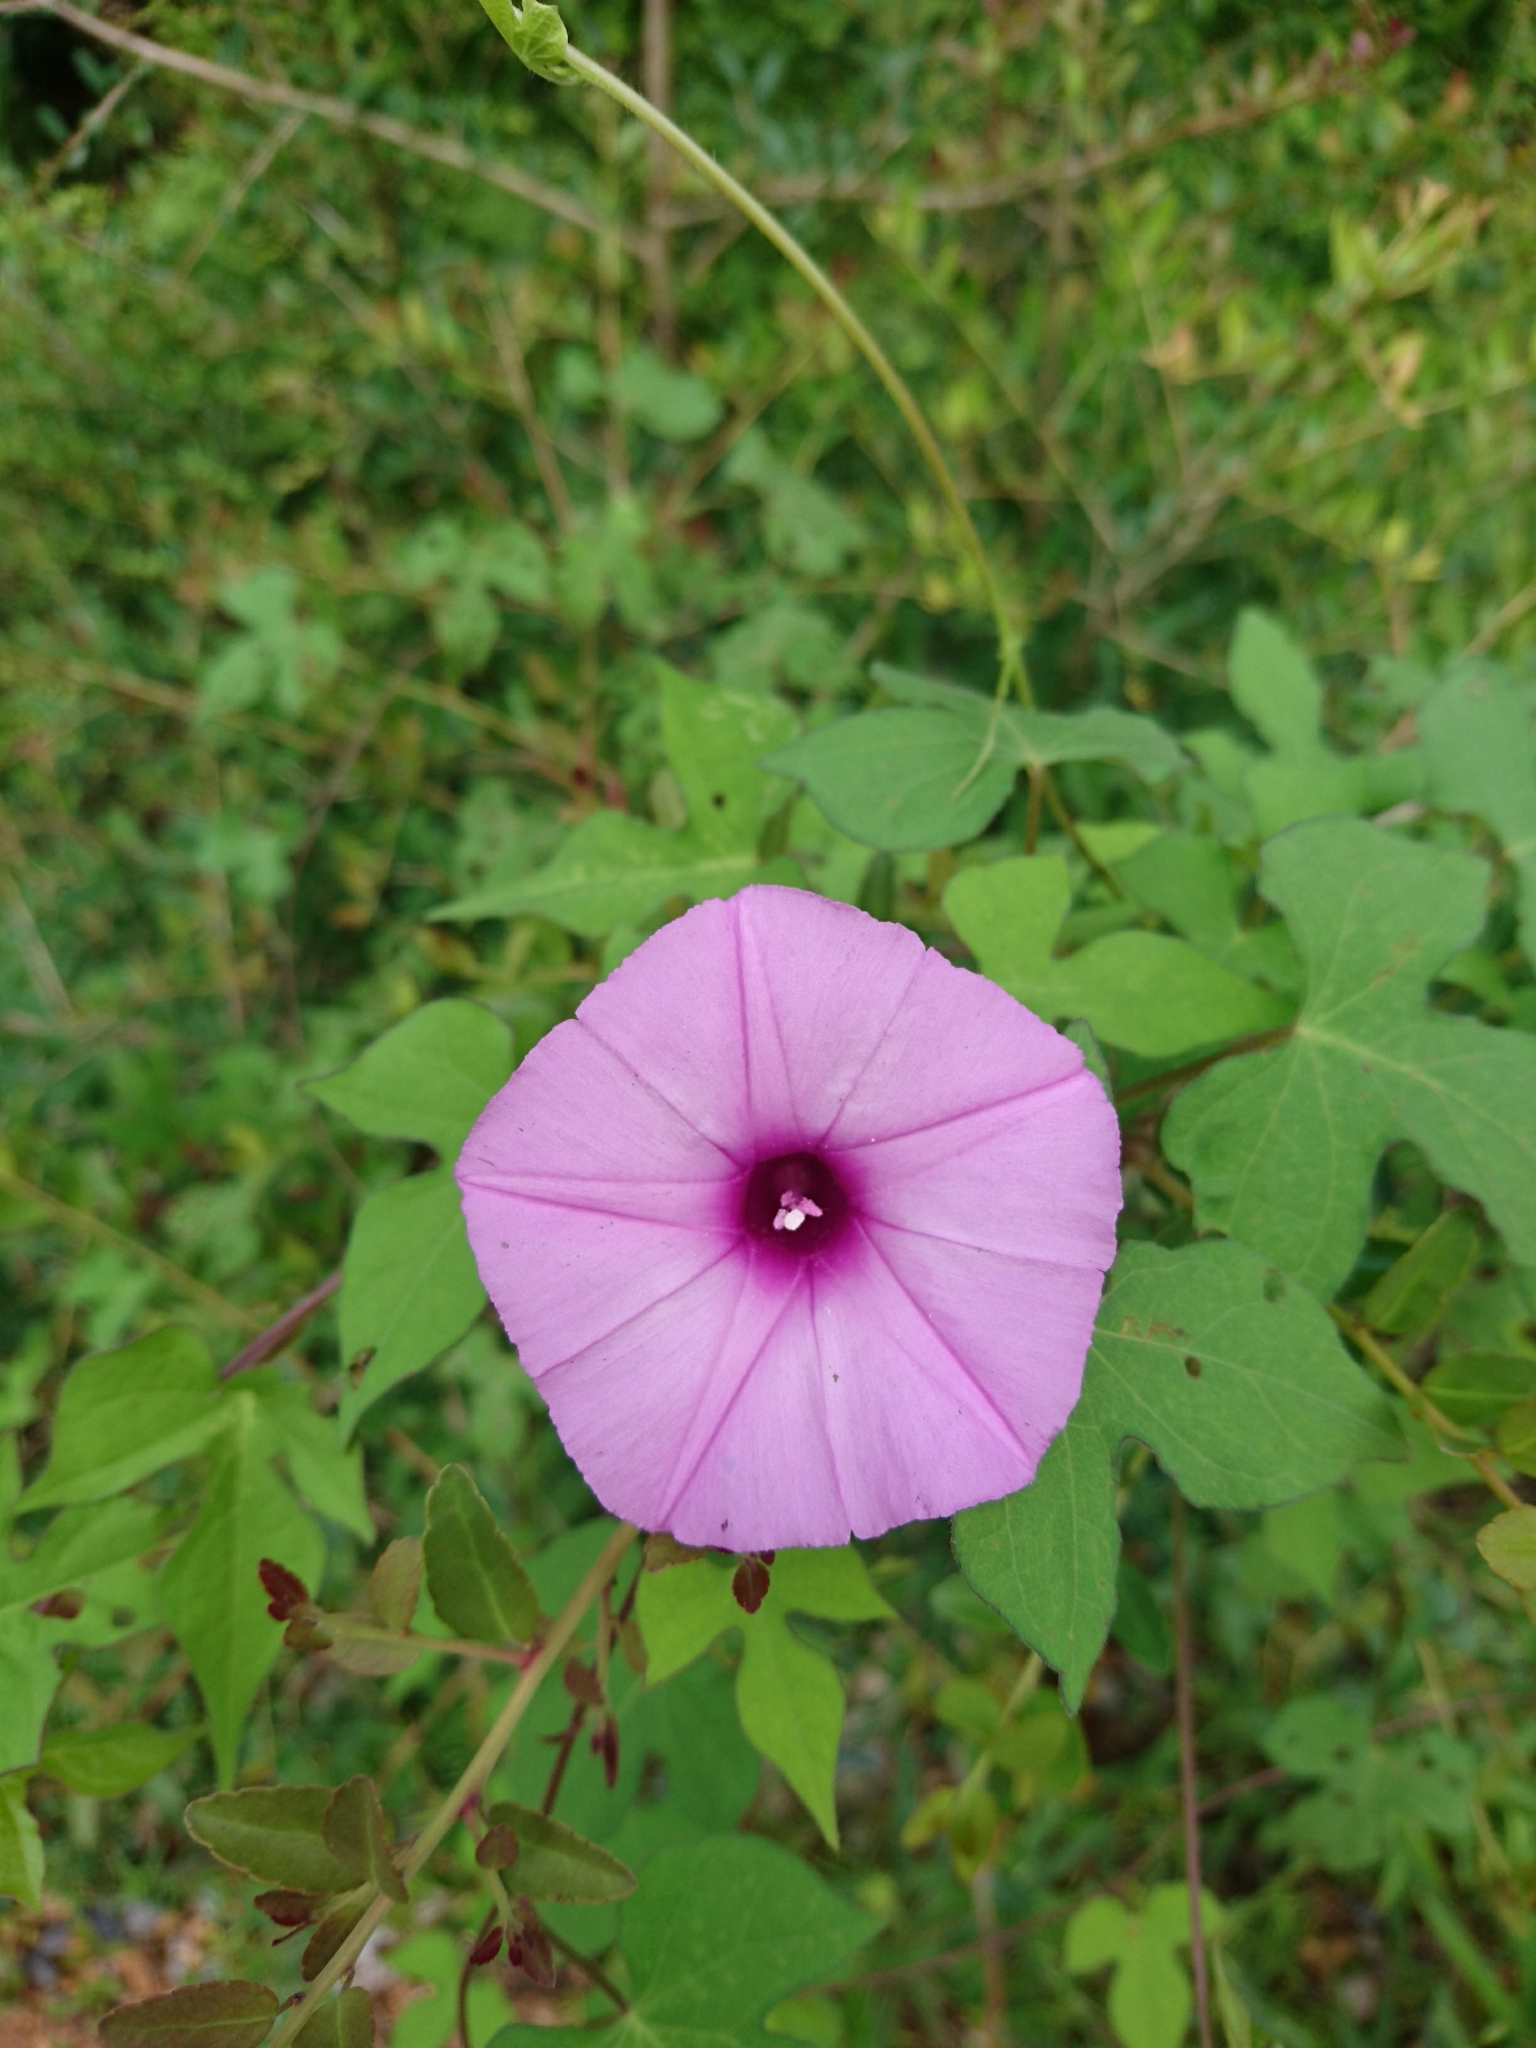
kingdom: Plantae
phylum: Tracheophyta
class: Magnoliopsida
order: Solanales
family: Convolvulaceae
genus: Ipomoea
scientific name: Ipomoea cordatotriloba
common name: Cotton morning glory
